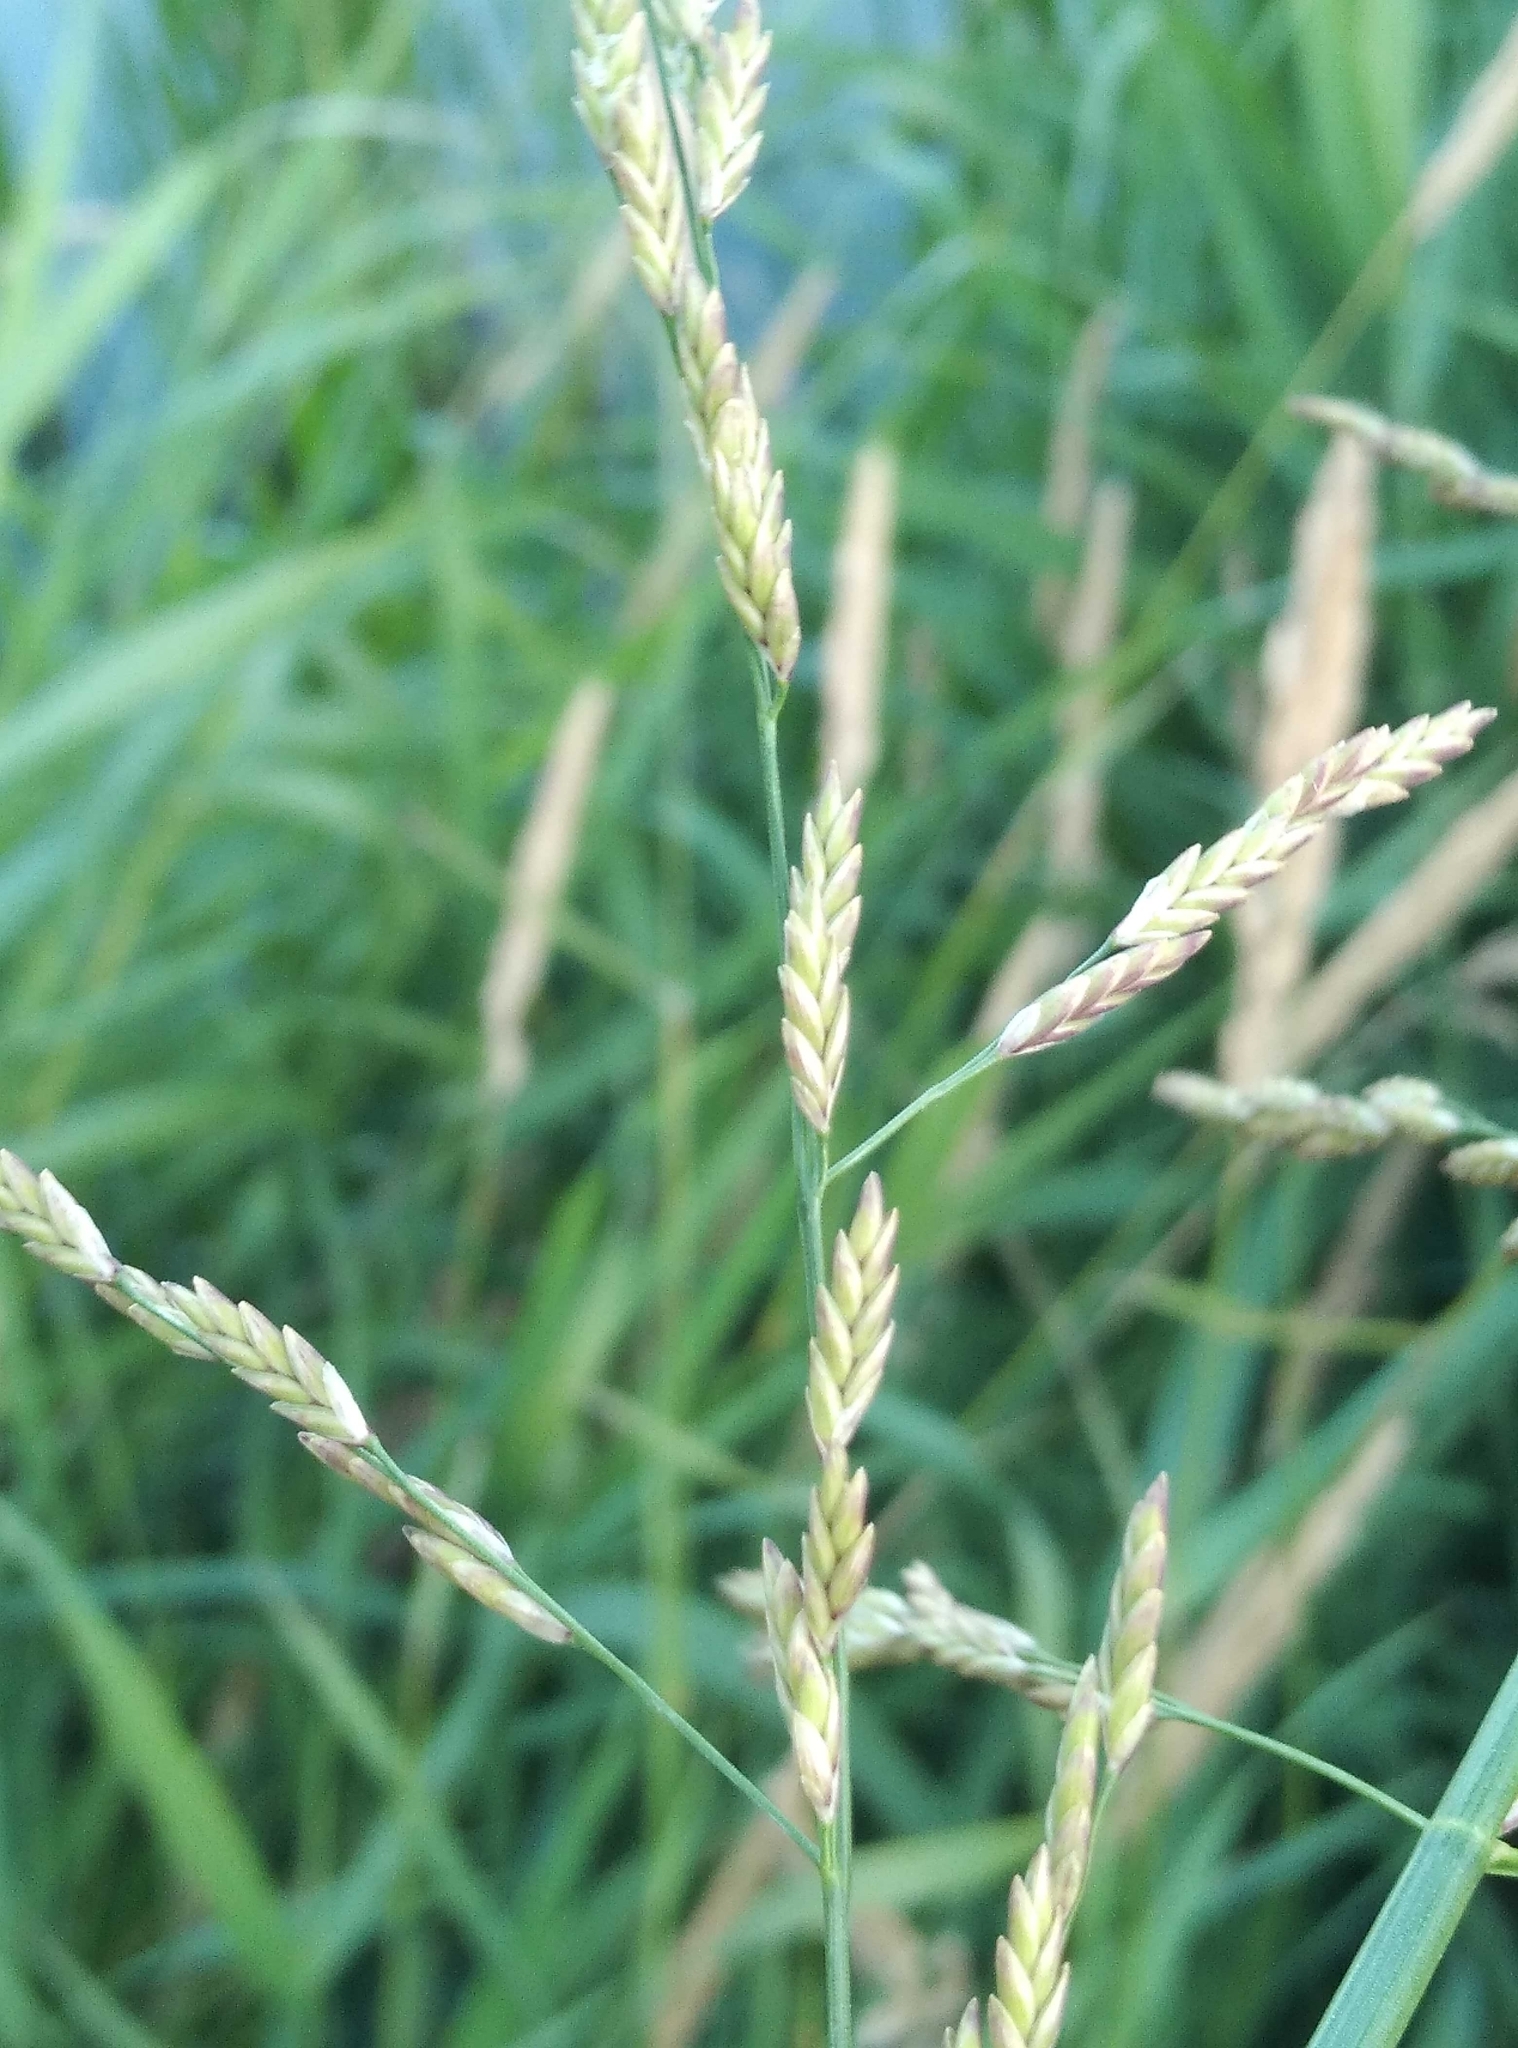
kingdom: Plantae
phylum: Tracheophyta
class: Liliopsida
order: Poales
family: Poaceae
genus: Glyceria
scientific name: Glyceria maxima
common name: Reed mannagrass
